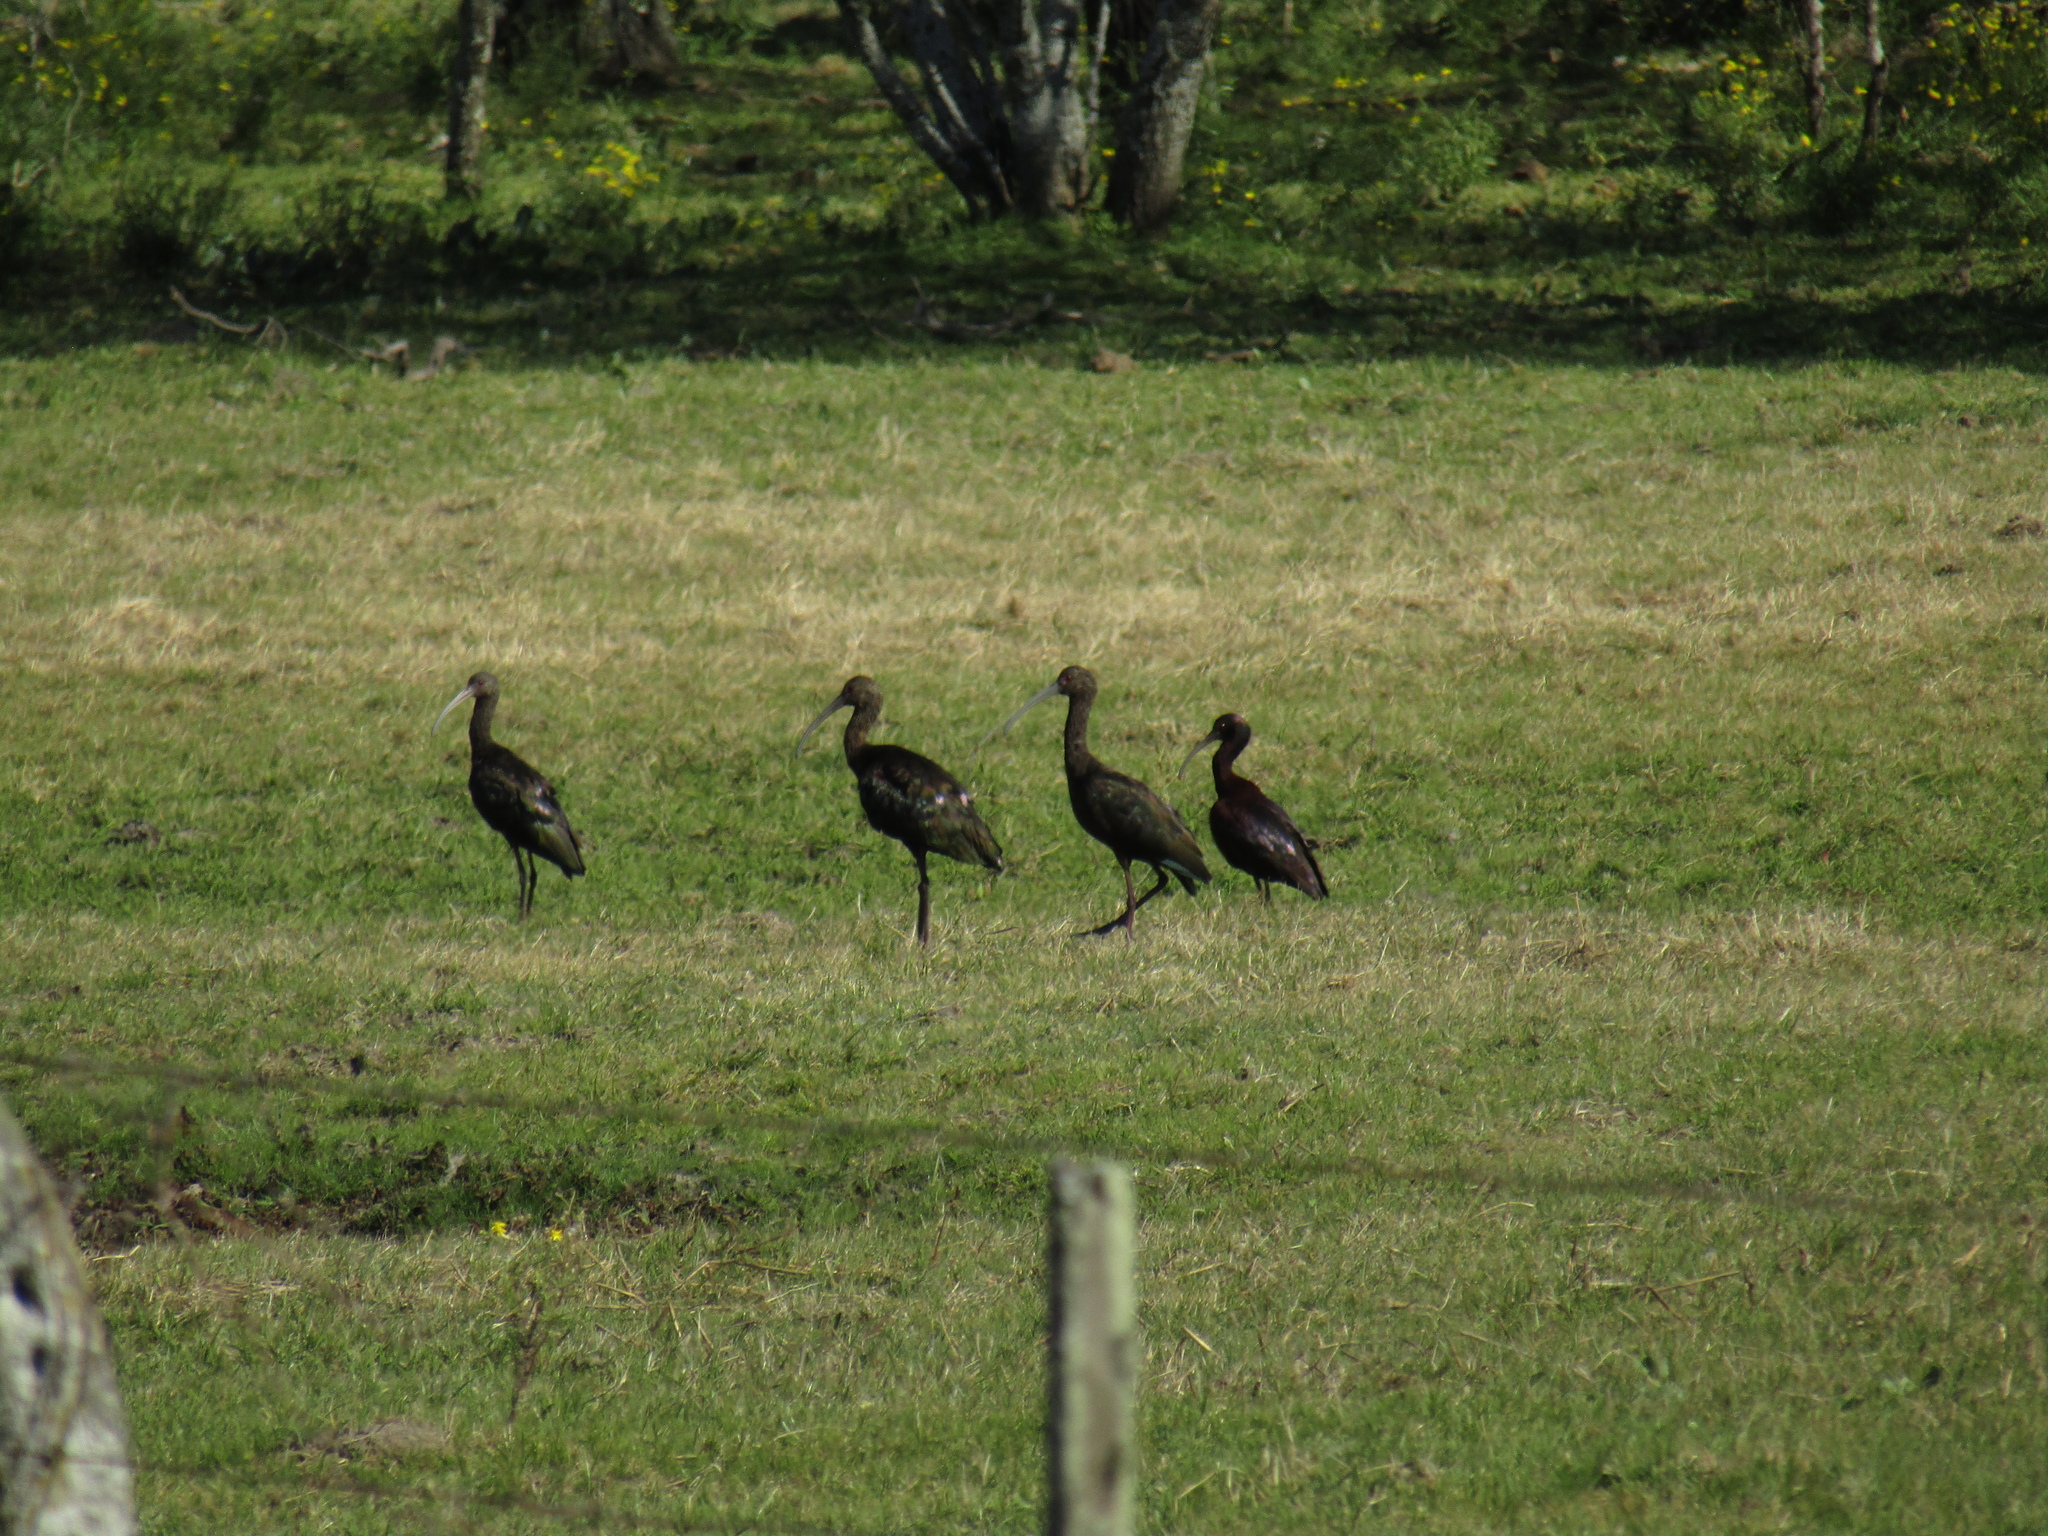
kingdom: Animalia
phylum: Chordata
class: Aves
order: Pelecaniformes
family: Threskiornithidae
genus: Plegadis
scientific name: Plegadis chihi
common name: White-faced ibis
